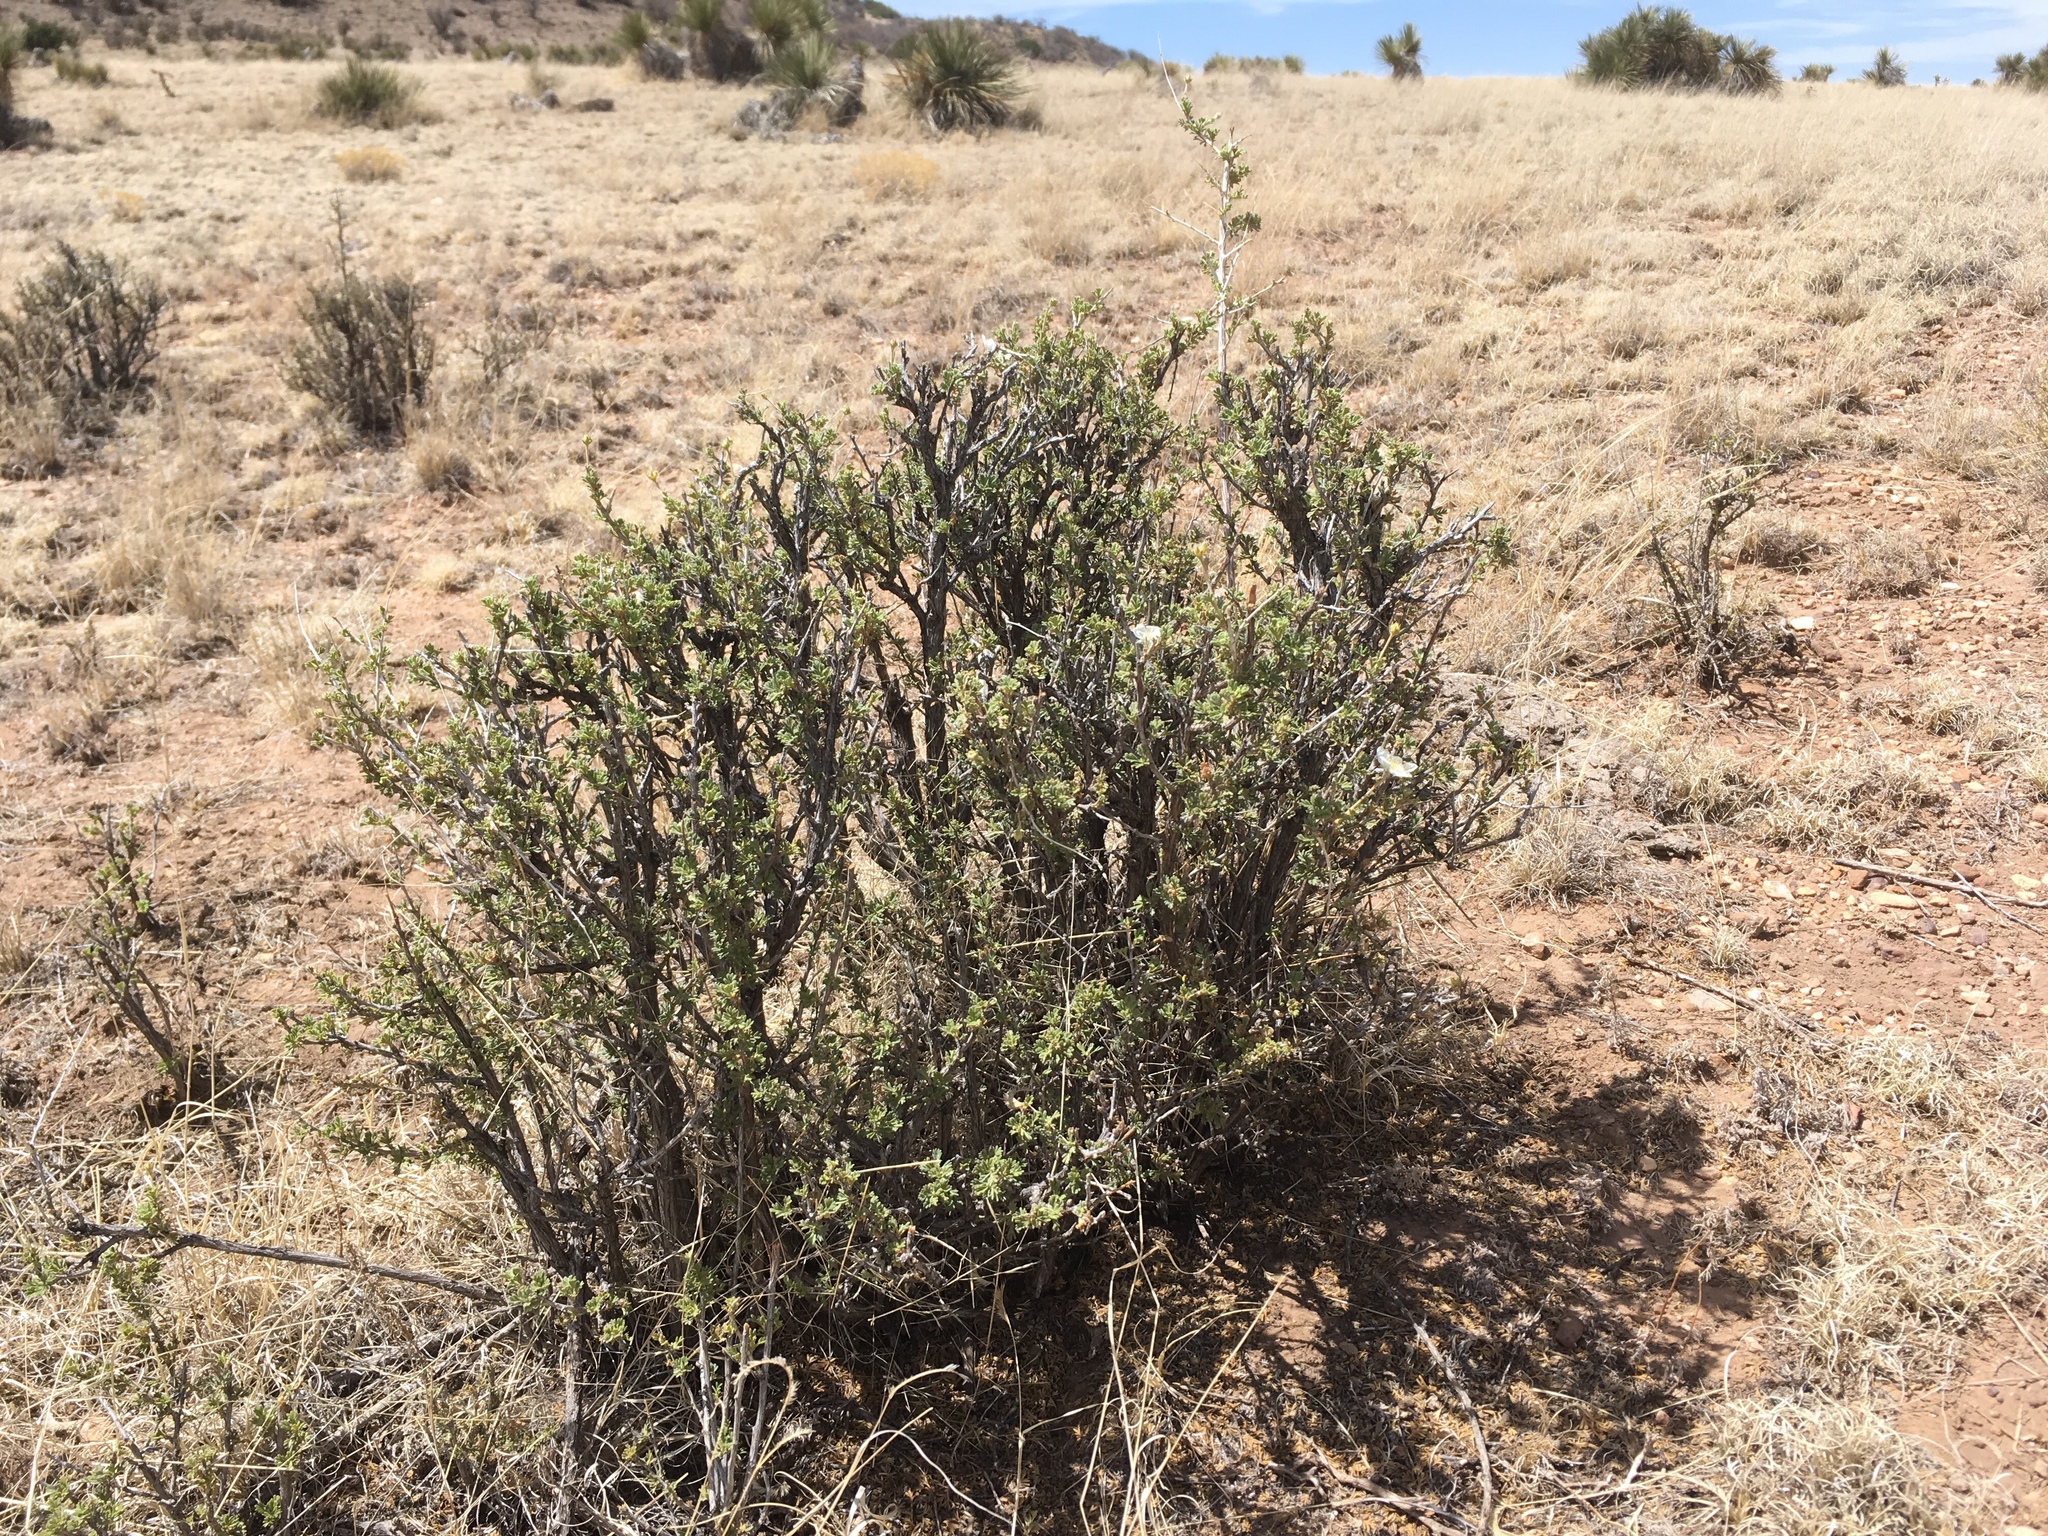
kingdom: Plantae
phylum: Tracheophyta
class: Magnoliopsida
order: Rosales
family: Rosaceae
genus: Fallugia
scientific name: Fallugia paradoxa
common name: Apache-plume
